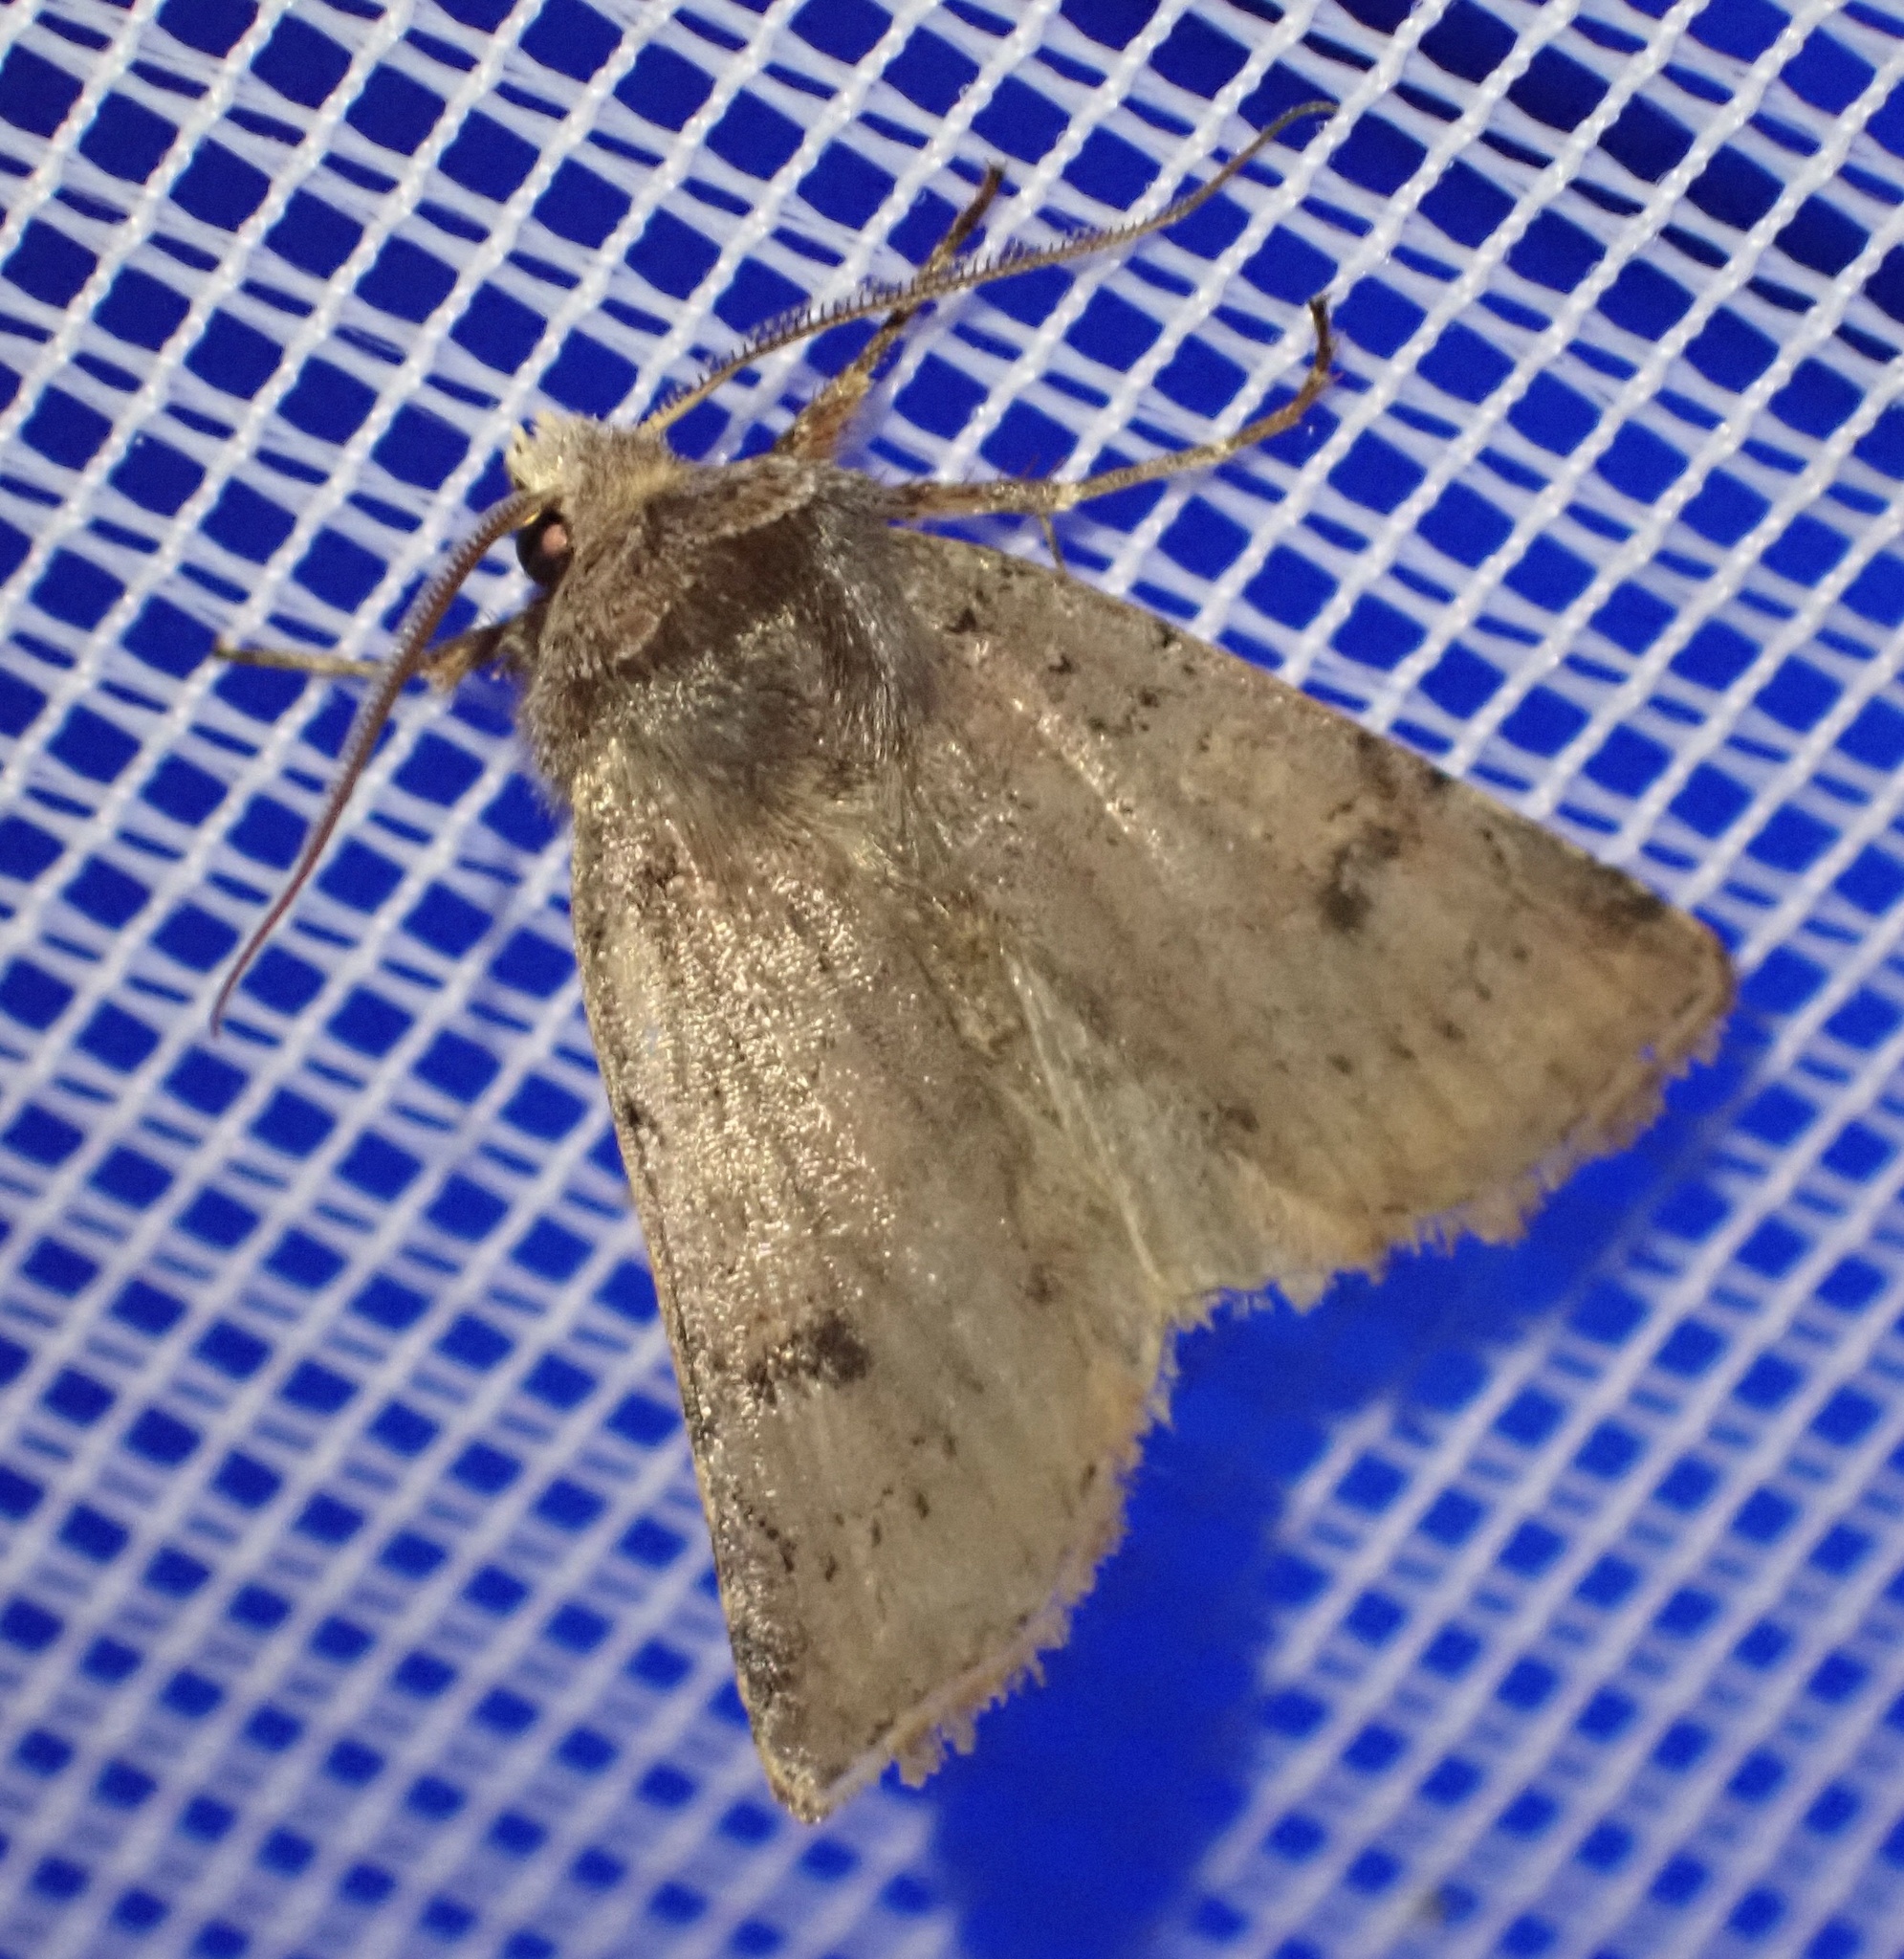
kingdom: Animalia
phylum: Arthropoda
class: Insecta
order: Lepidoptera
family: Noctuidae
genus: Cerastis
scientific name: Cerastis faceta
